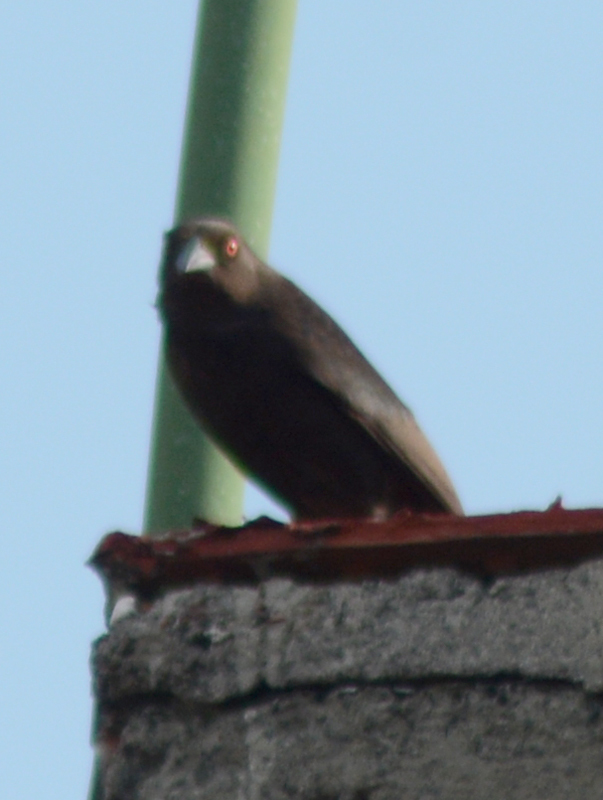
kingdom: Animalia
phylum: Chordata
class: Aves
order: Passeriformes
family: Icteridae
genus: Molothrus
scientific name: Molothrus aeneus
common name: Bronzed cowbird
